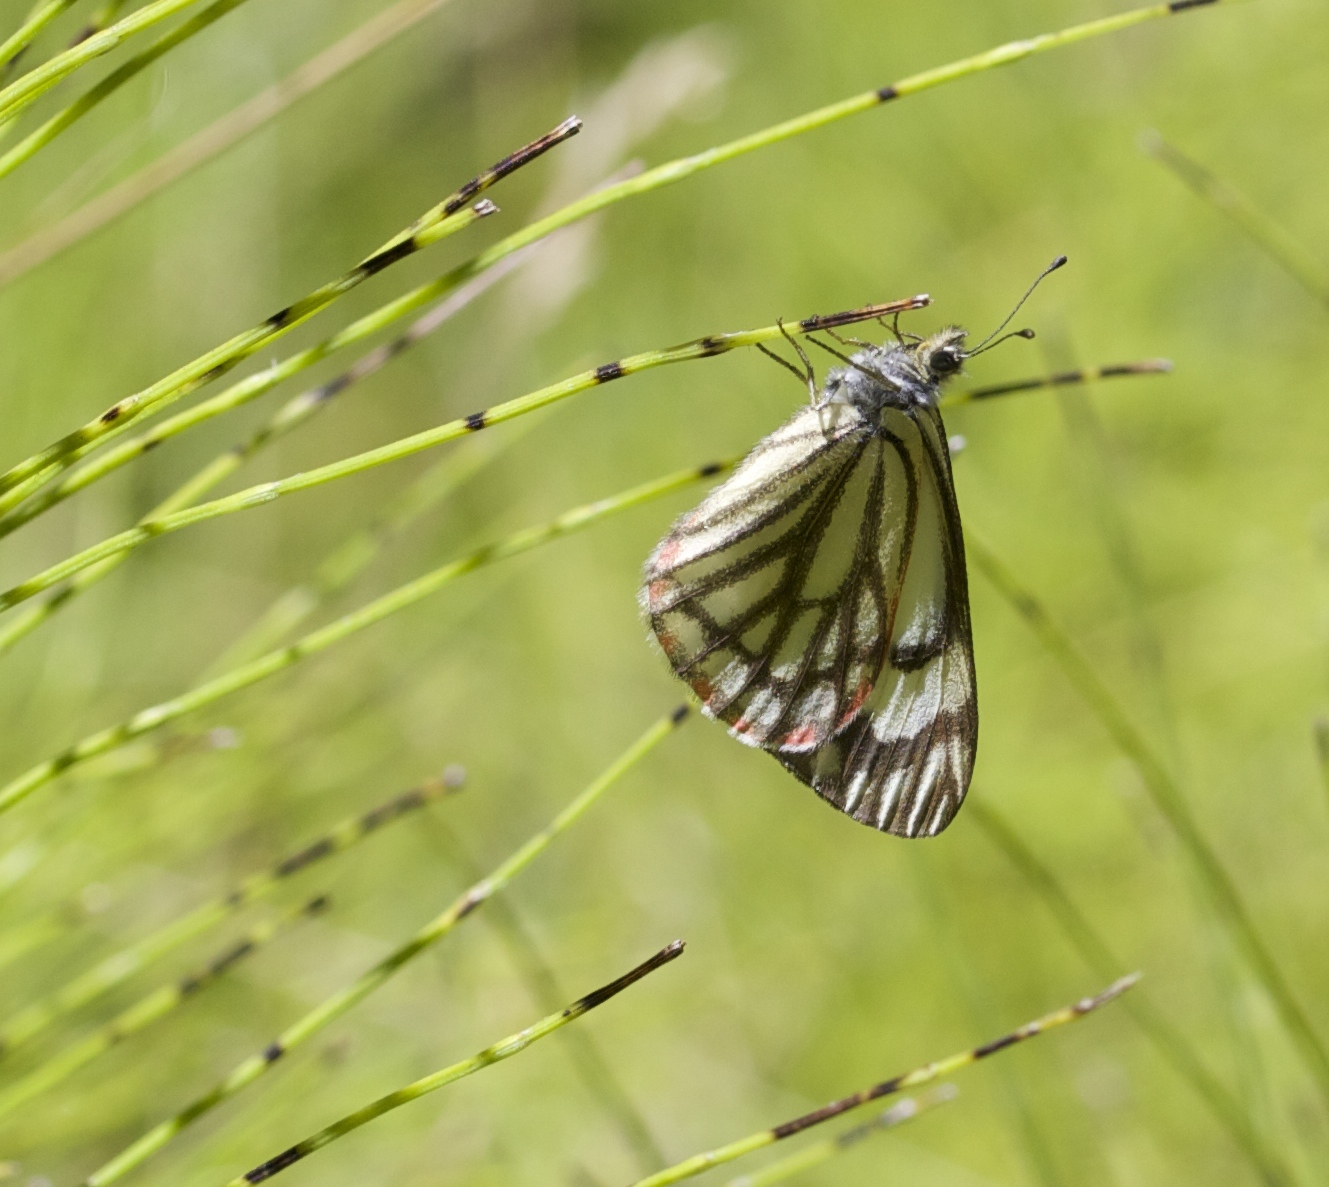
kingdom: Animalia
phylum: Arthropoda
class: Insecta
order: Lepidoptera
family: Pieridae
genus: Neophasia
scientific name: Neophasia menapia
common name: Pine white
